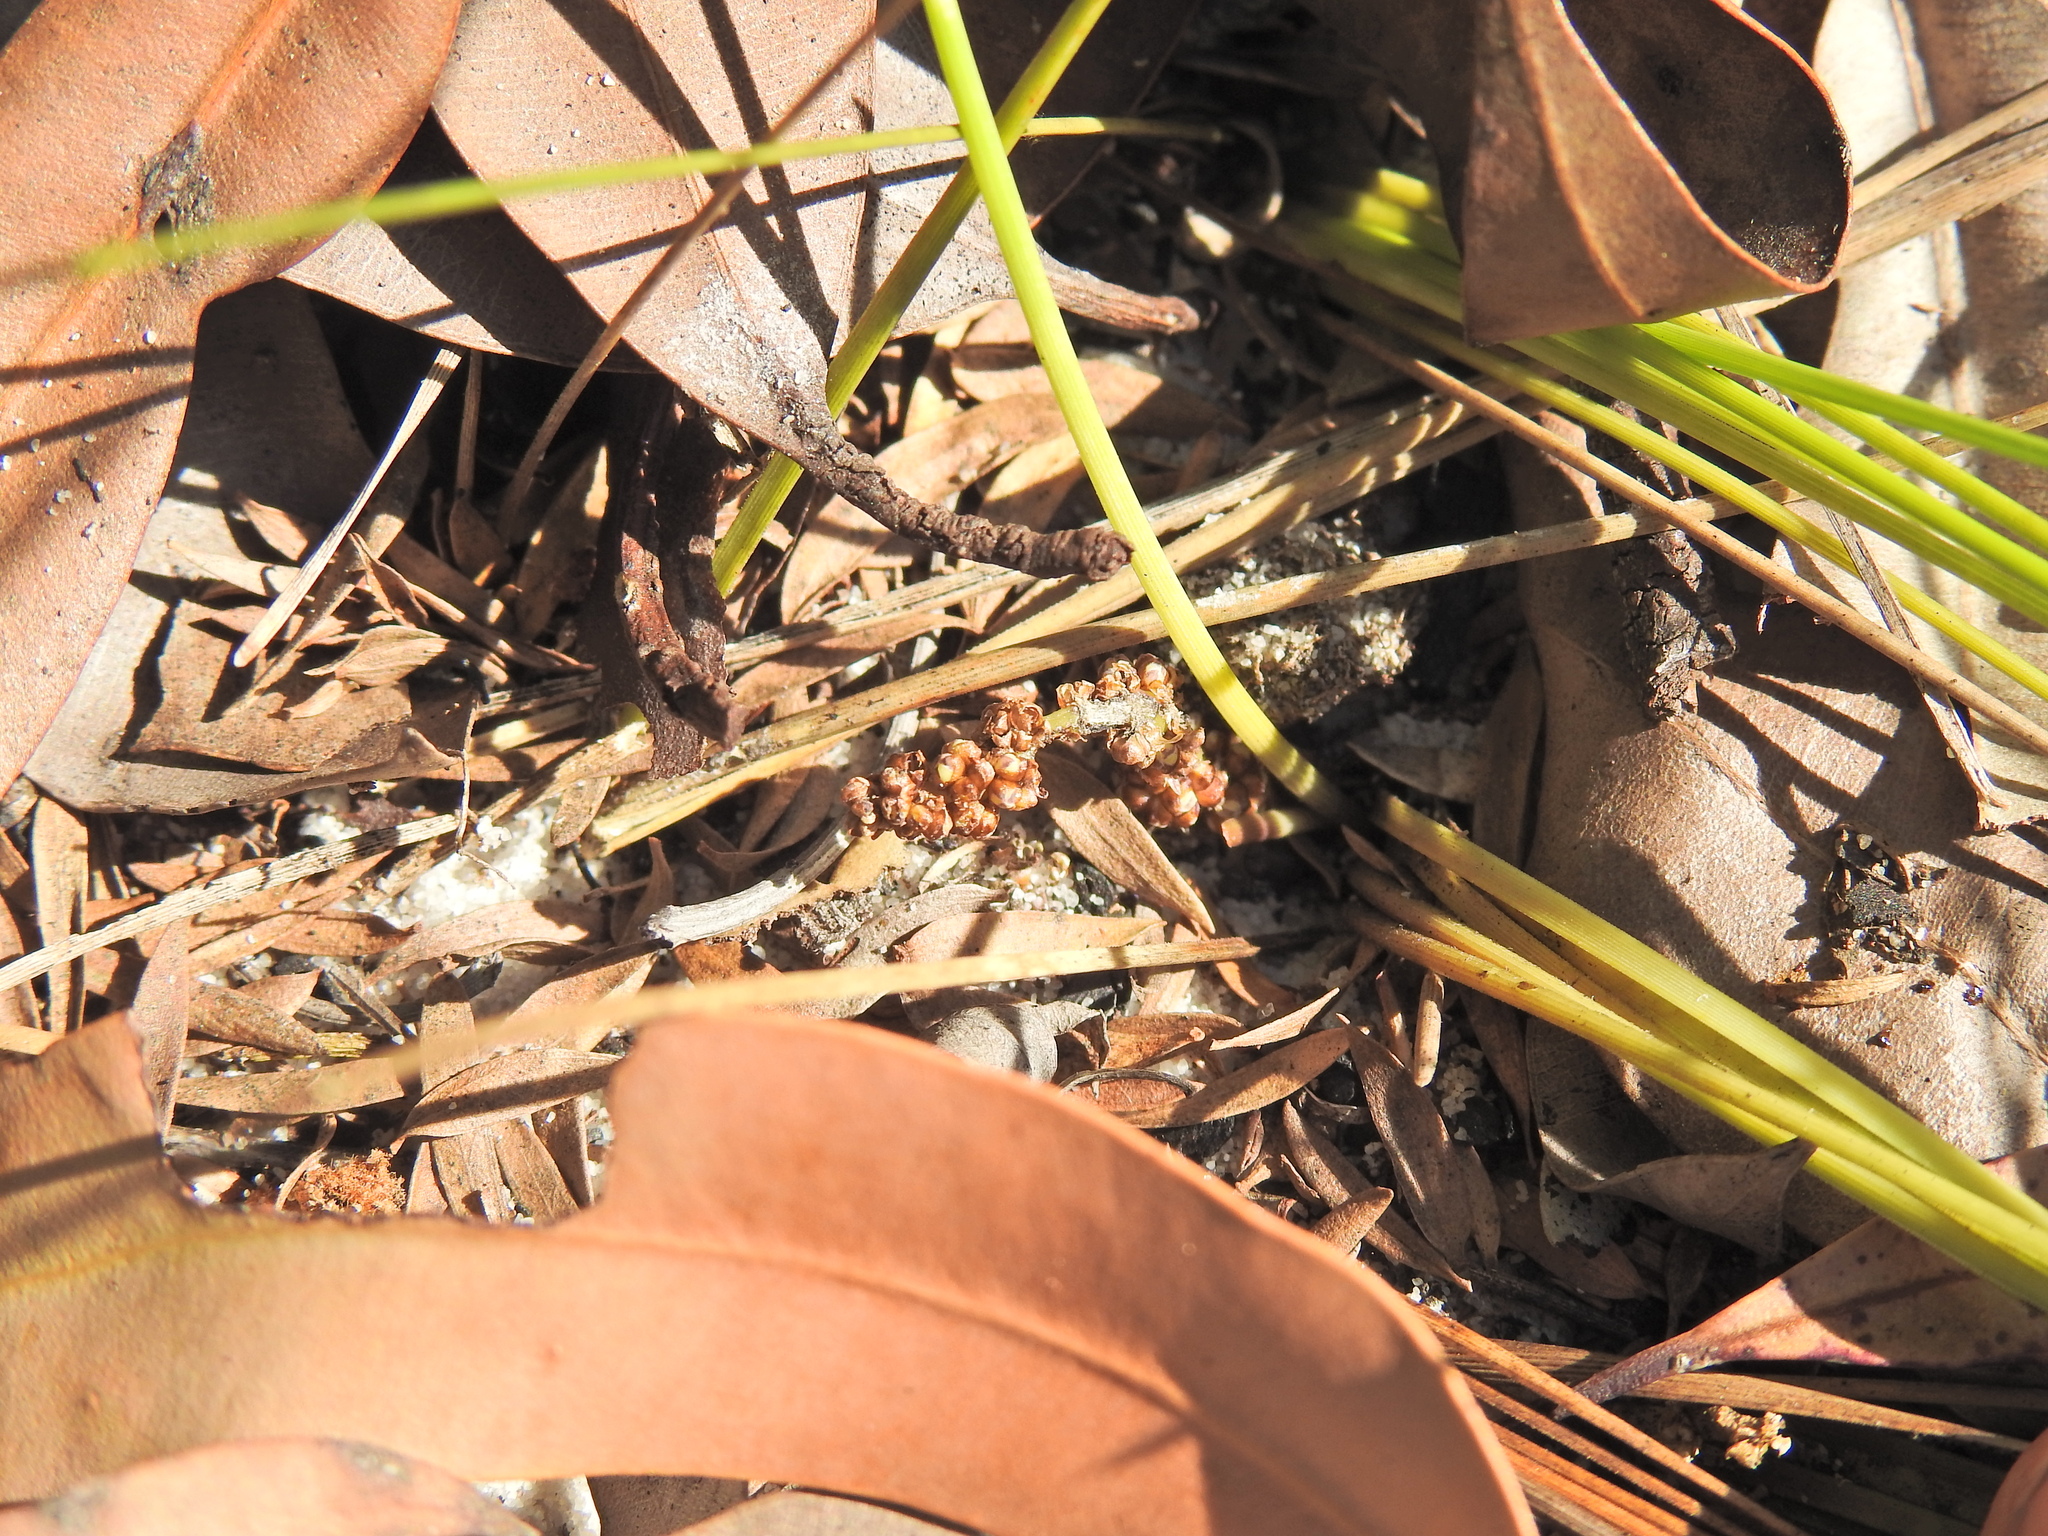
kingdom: Plantae
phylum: Tracheophyta
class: Liliopsida
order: Asparagales
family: Asparagaceae
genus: Lomandra
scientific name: Lomandra elongata
